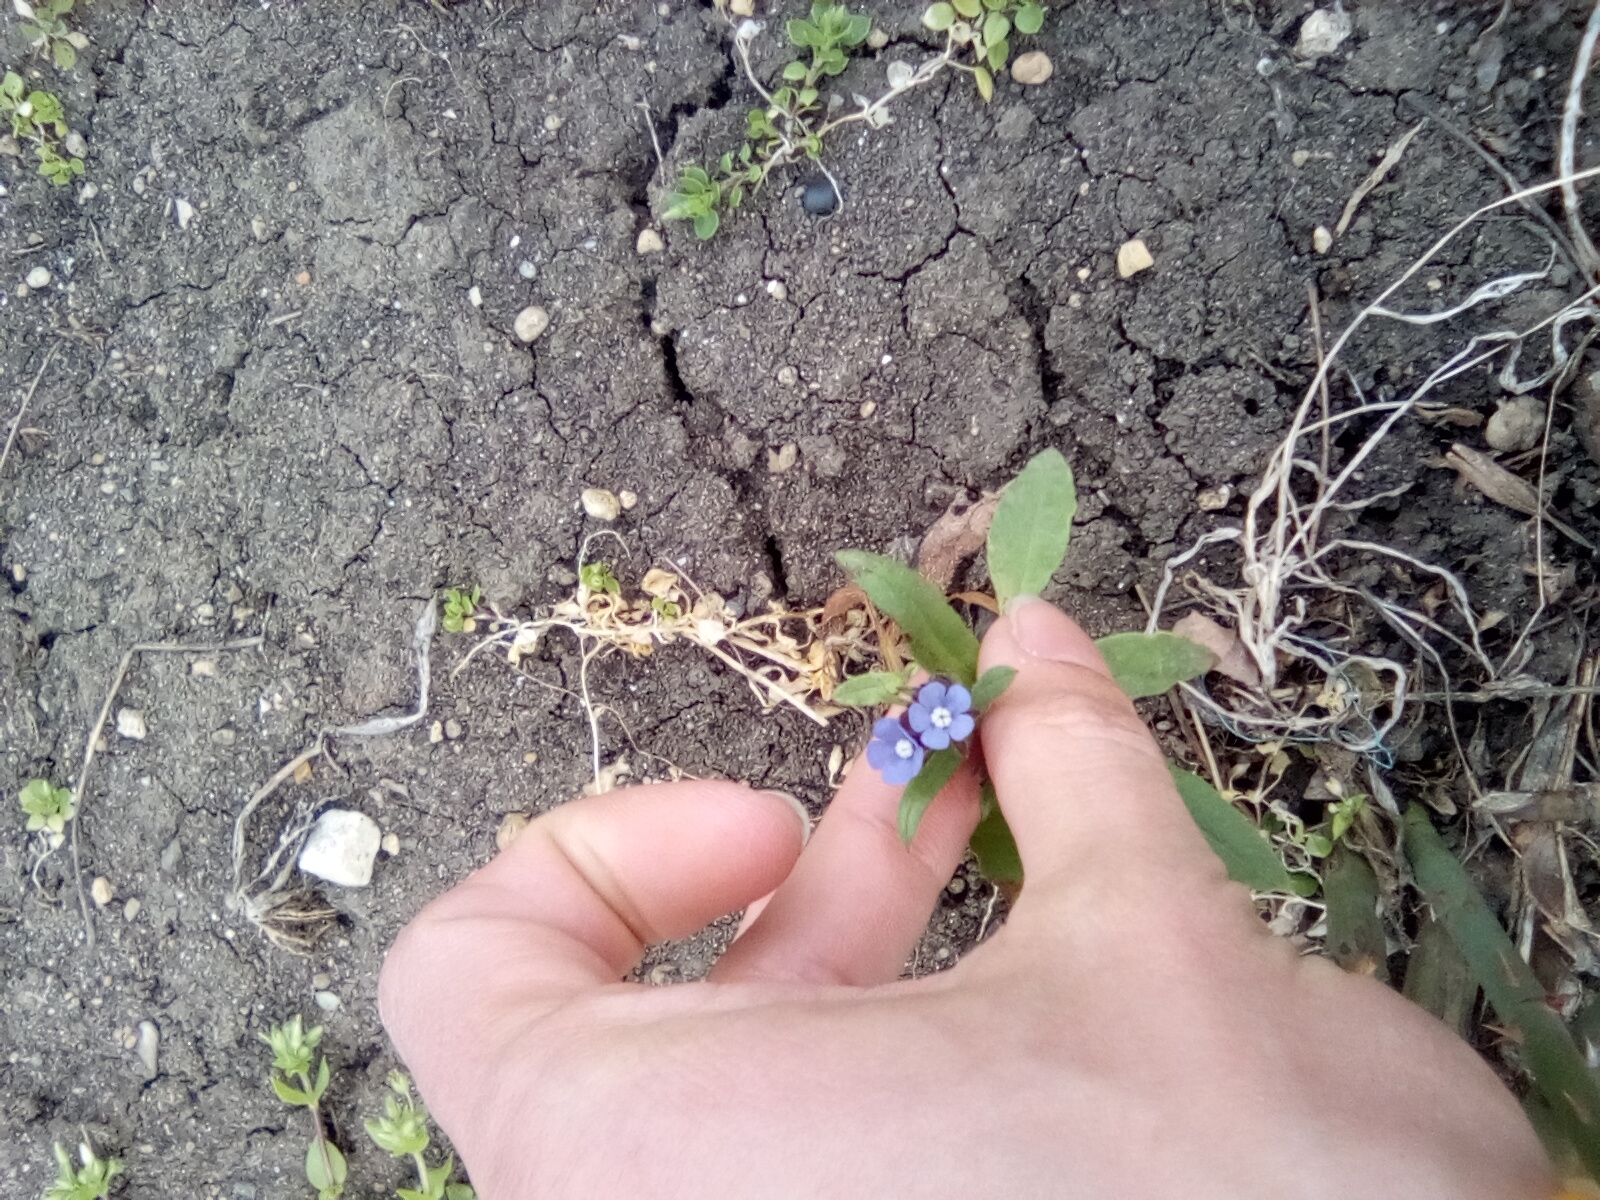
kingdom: Plantae
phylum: Tracheophyta
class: Magnoliopsida
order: Boraginales
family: Boraginaceae
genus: Lycopsis
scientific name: Lycopsis arvensis
